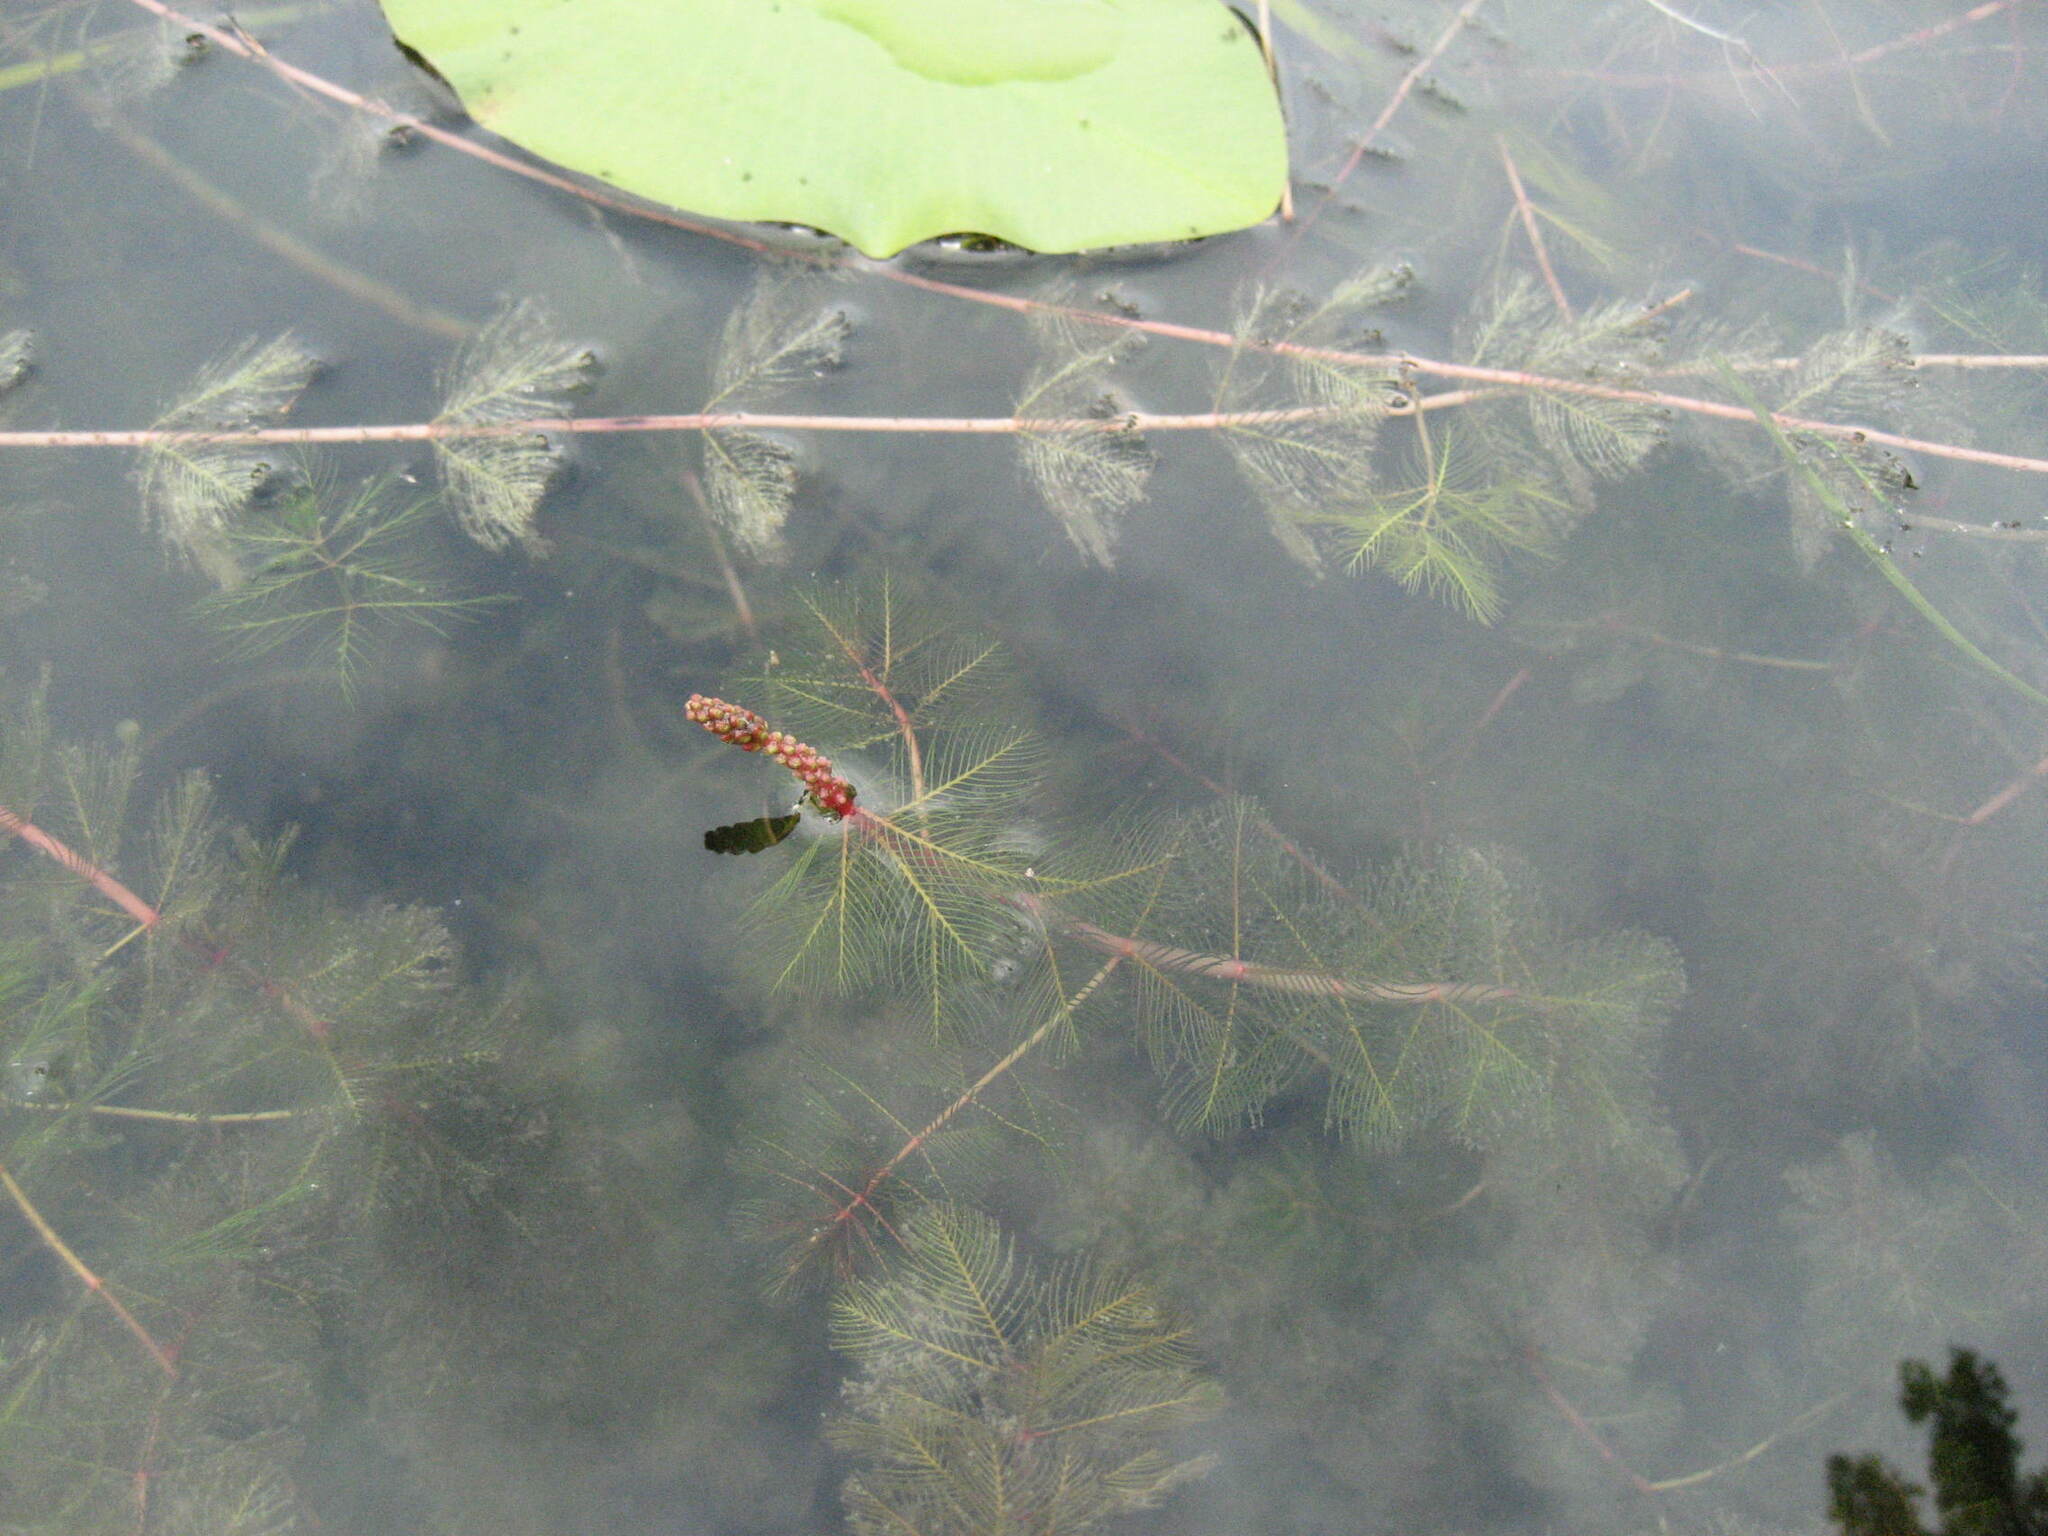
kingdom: Plantae
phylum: Tracheophyta
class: Magnoliopsida
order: Saxifragales
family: Haloragaceae
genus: Myriophyllum
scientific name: Myriophyllum spicatum
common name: Spiked water-milfoil
